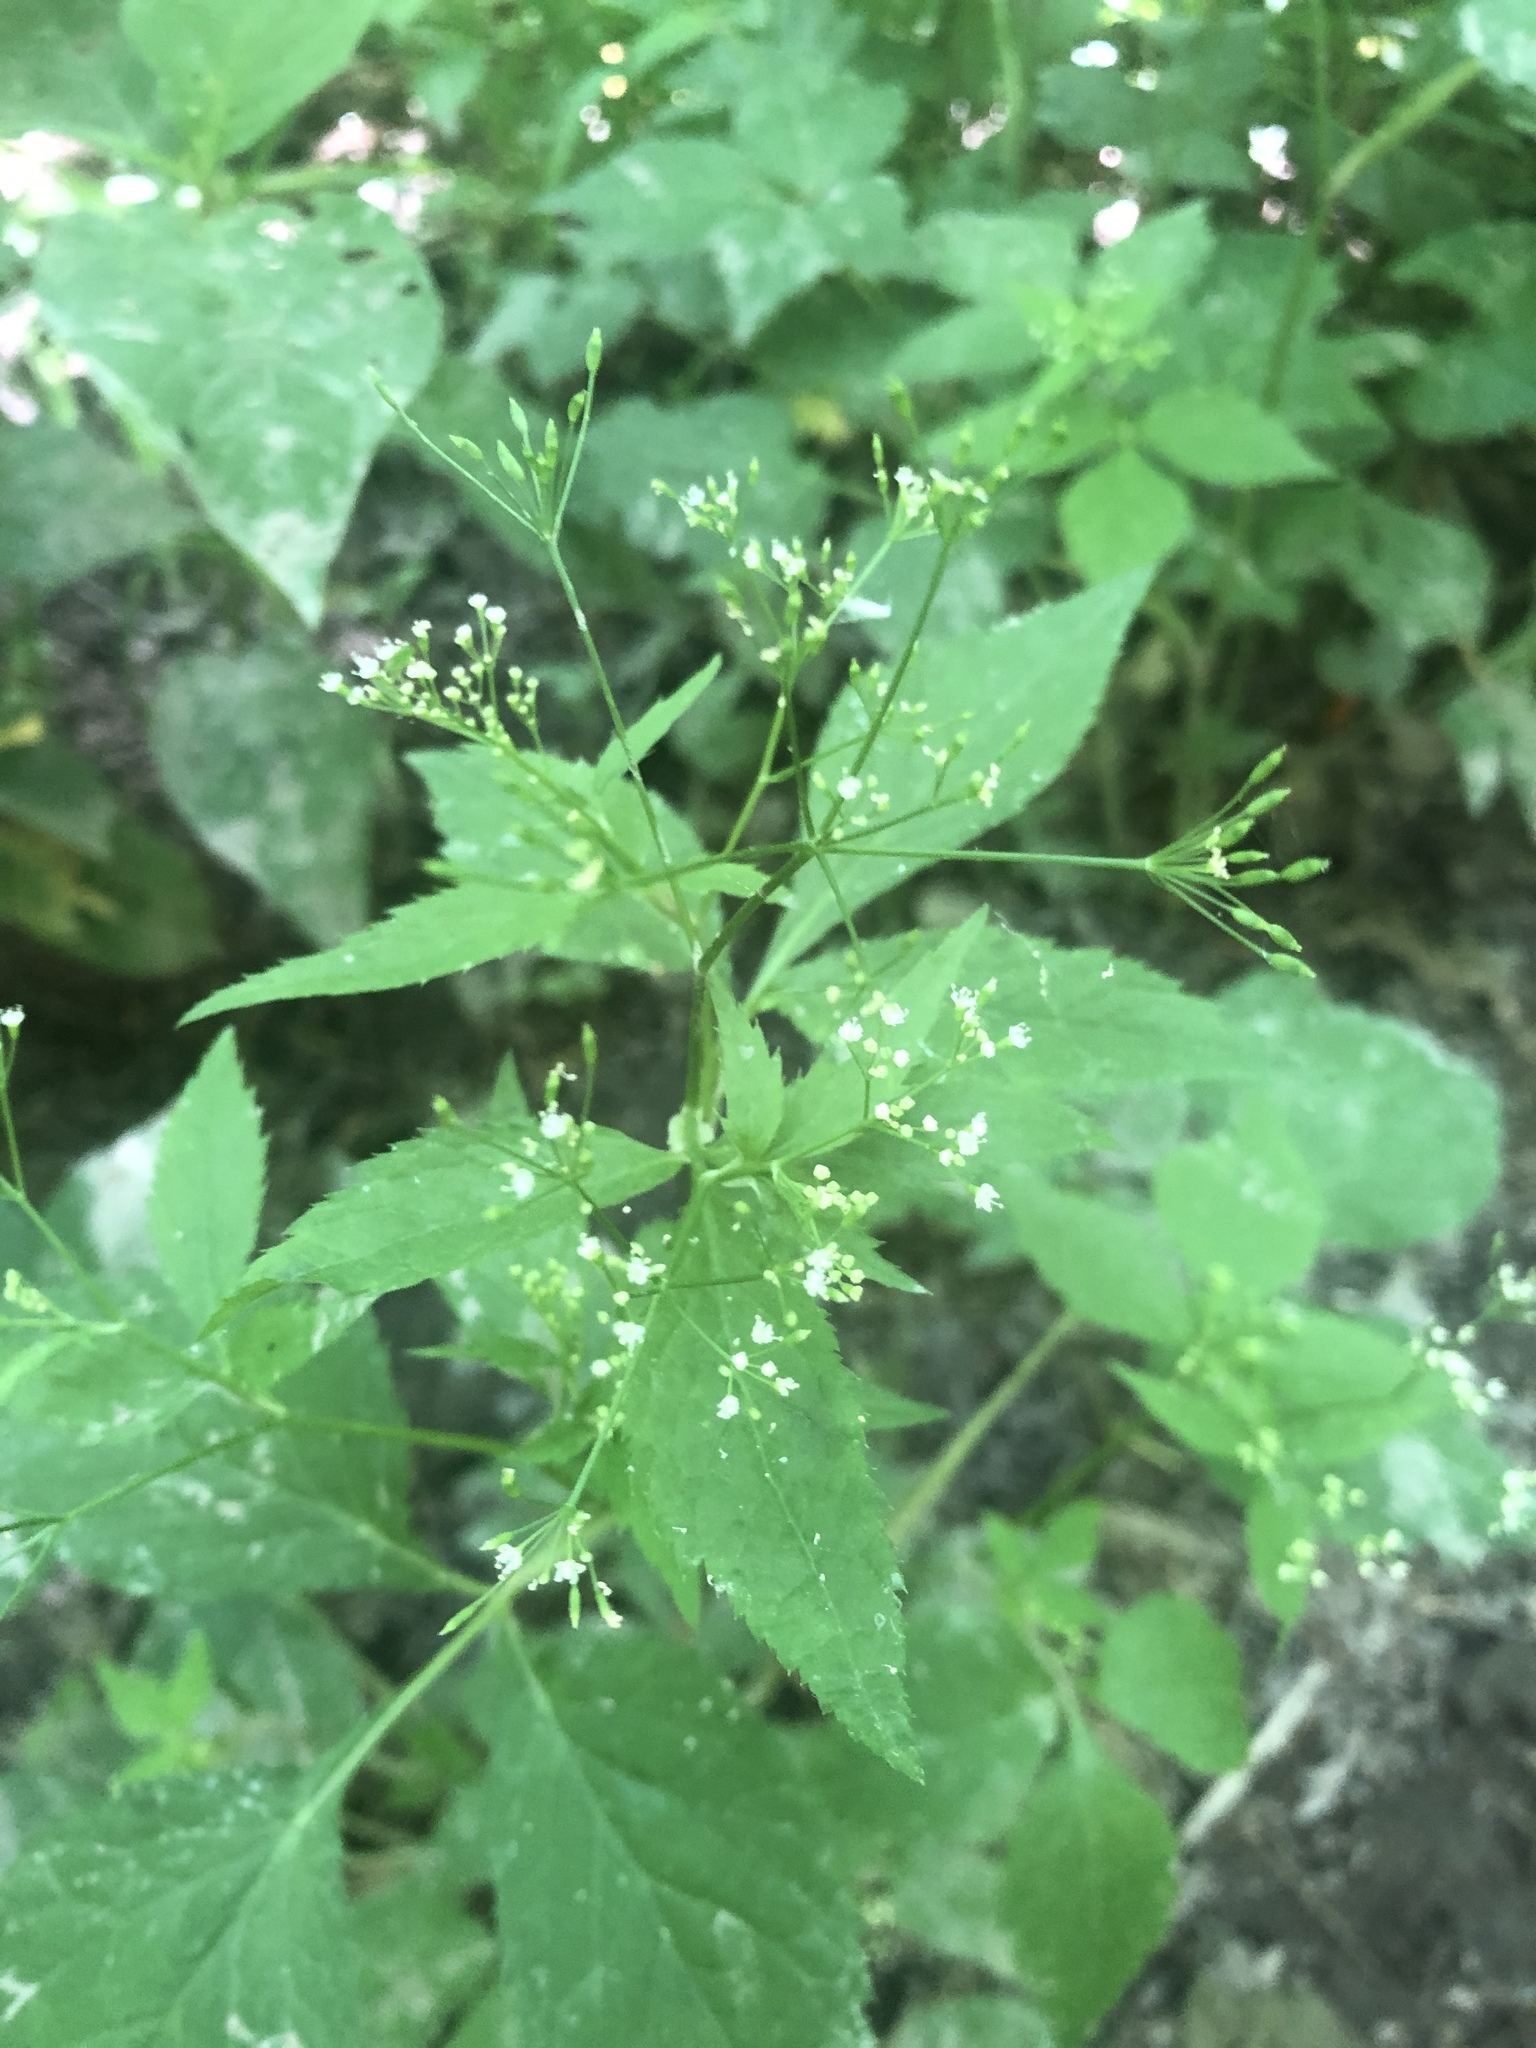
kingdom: Plantae
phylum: Tracheophyta
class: Magnoliopsida
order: Apiales
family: Apiaceae
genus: Cryptotaenia
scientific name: Cryptotaenia canadensis
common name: Honewort
